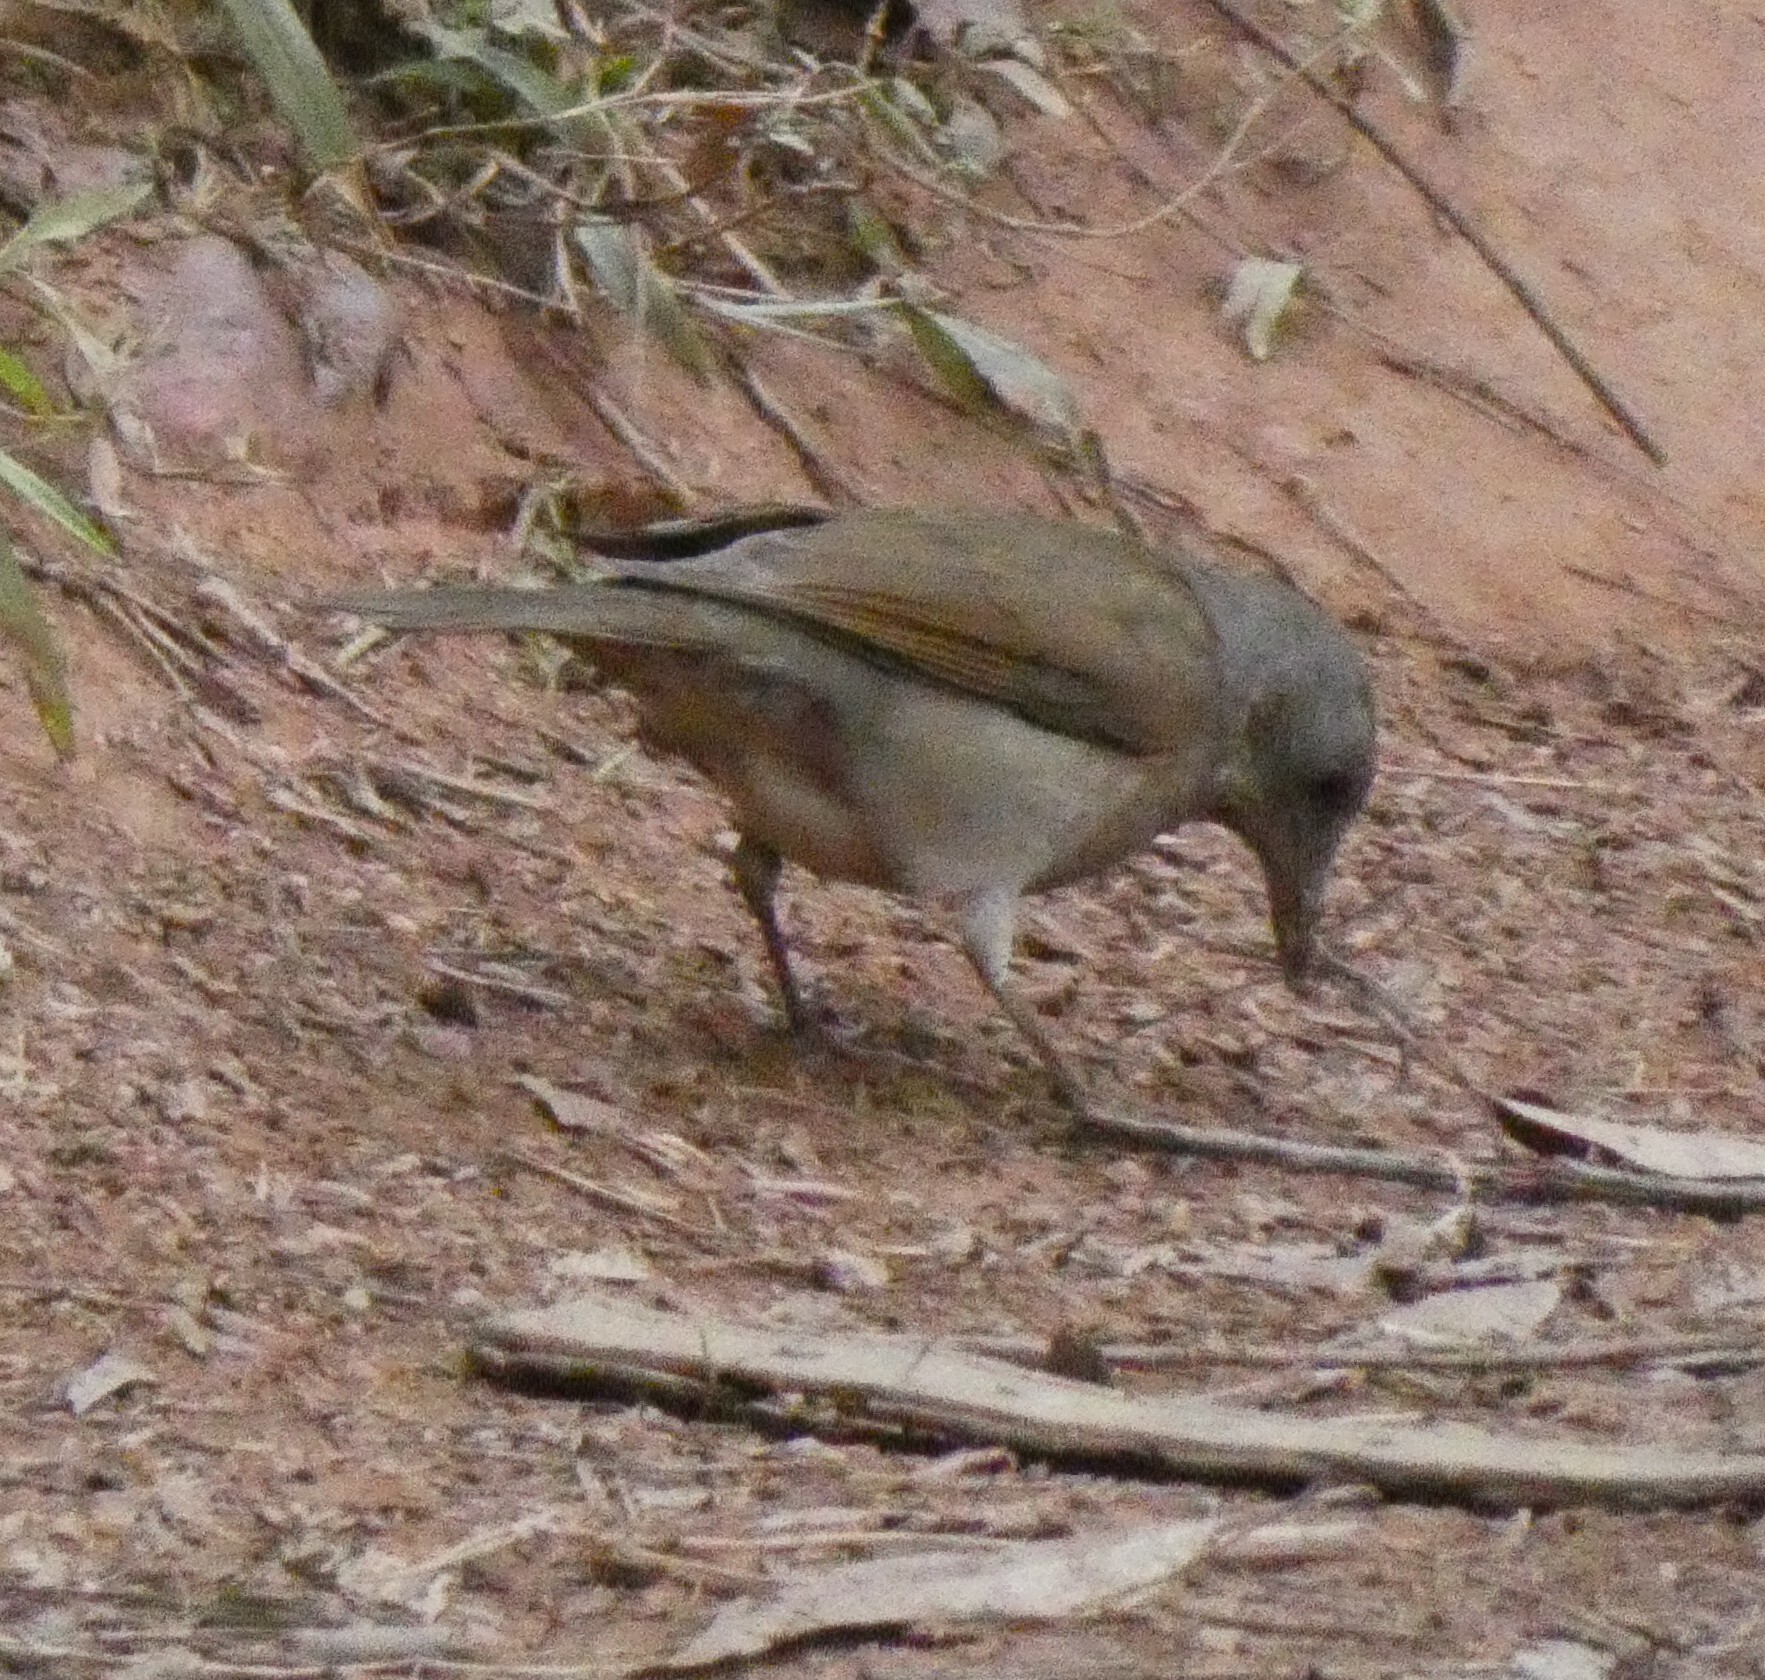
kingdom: Animalia
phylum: Chordata
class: Aves
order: Passeriformes
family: Turdidae
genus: Turdus
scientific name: Turdus leucomelas
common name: Pale-breasted thrush
